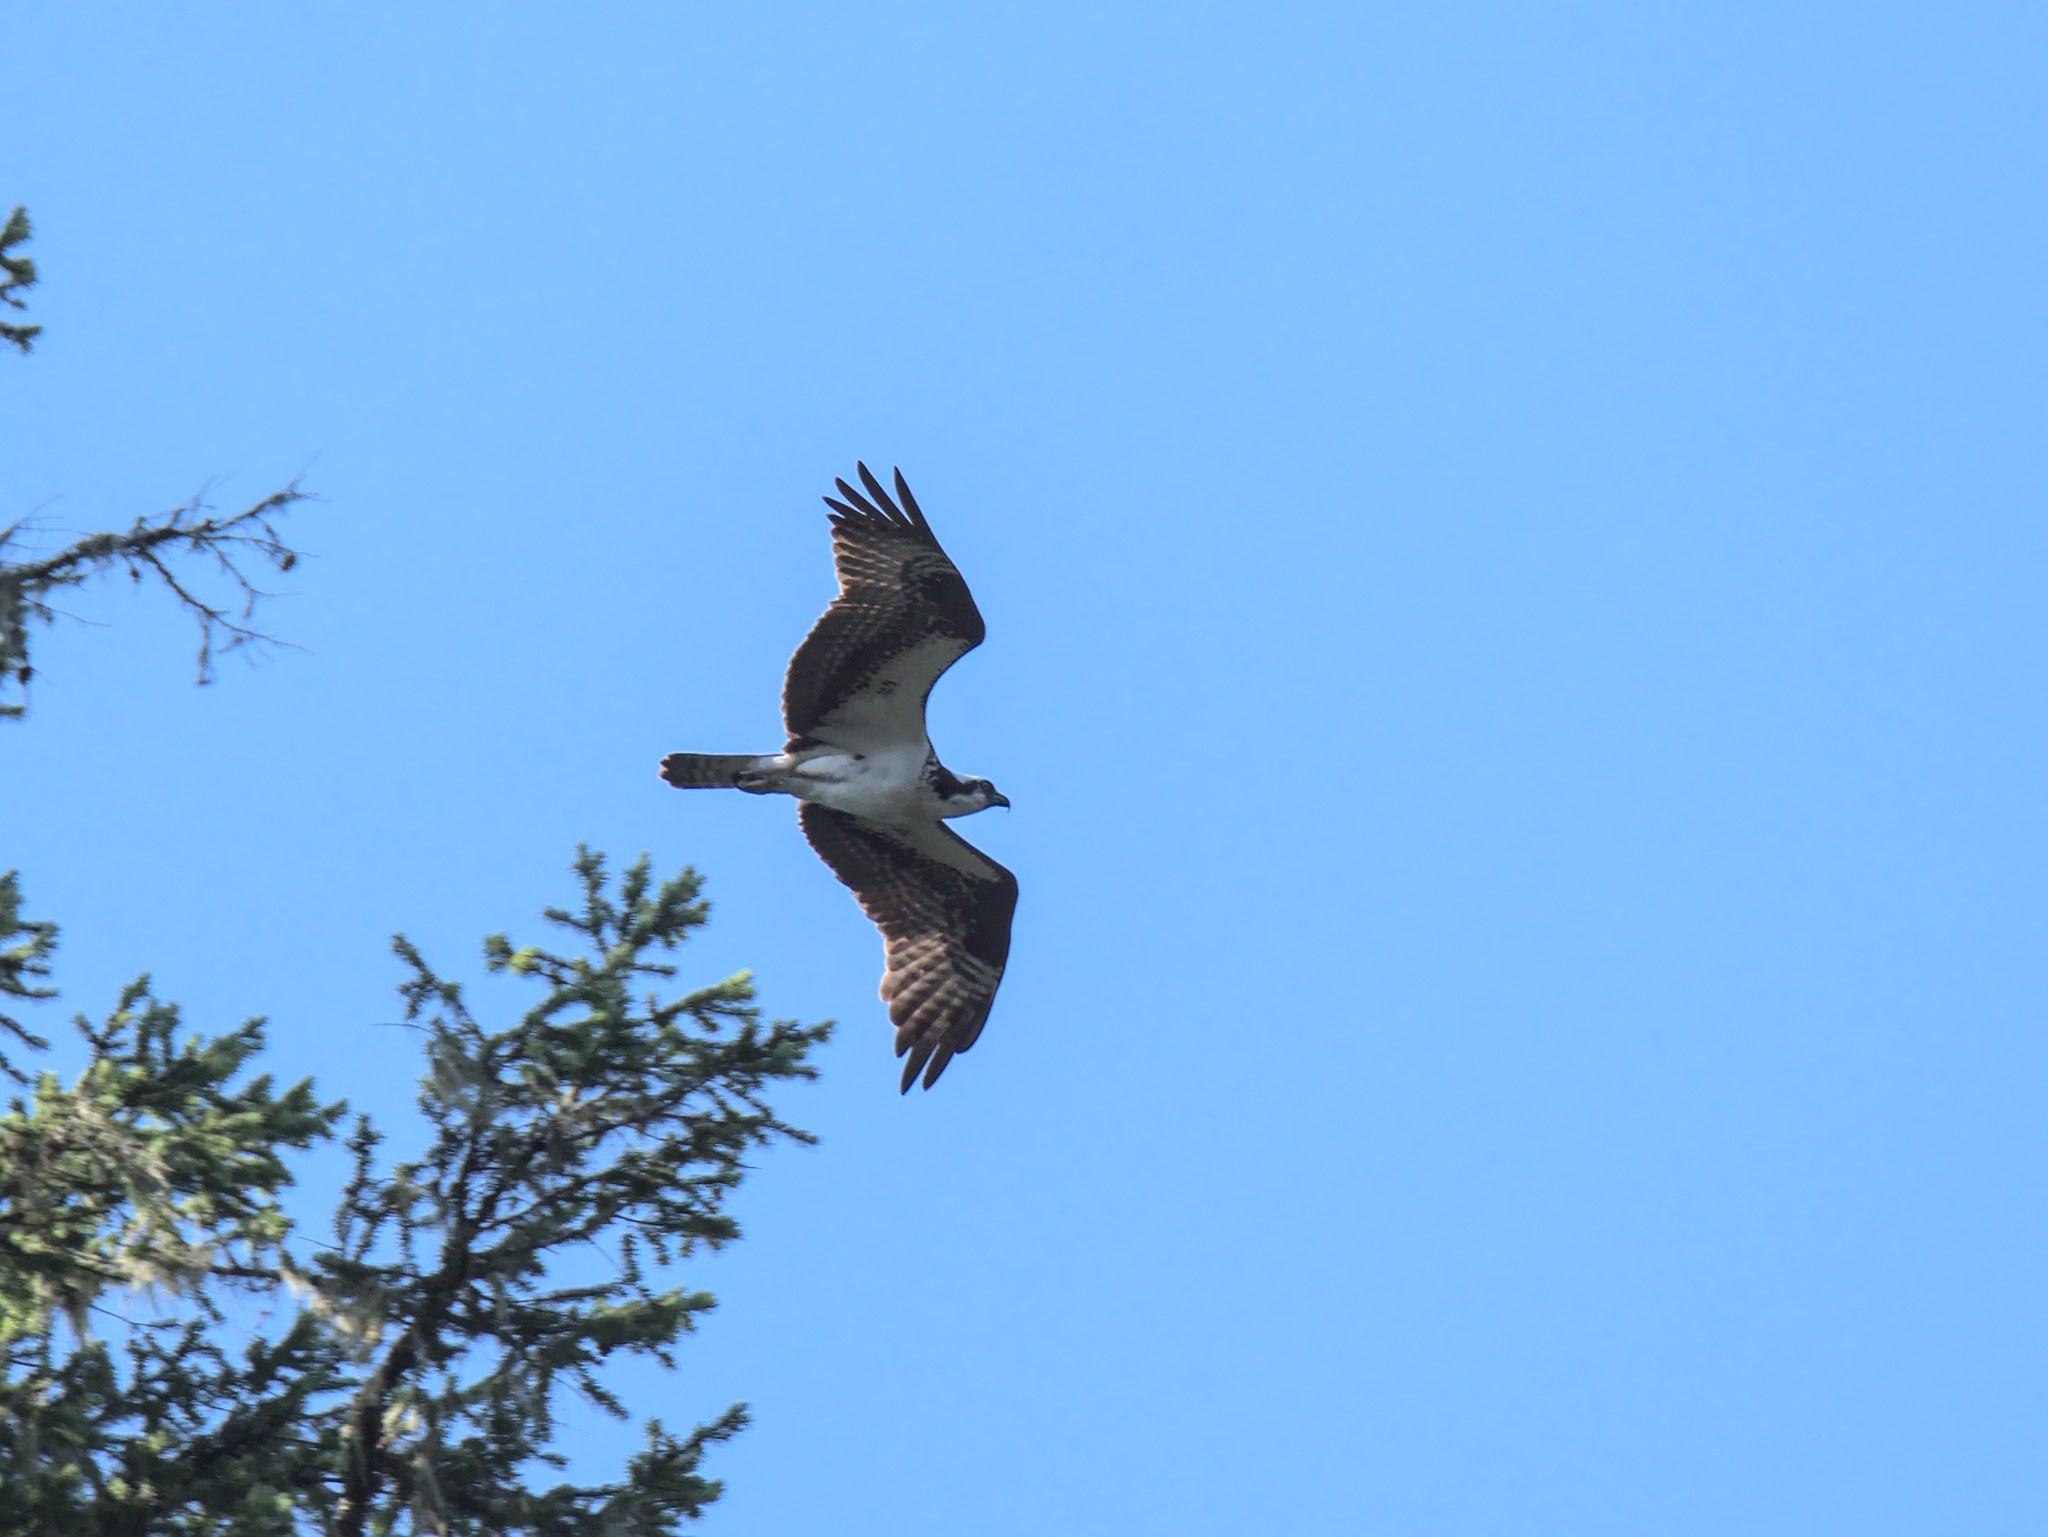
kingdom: Animalia
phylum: Chordata
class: Aves
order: Accipitriformes
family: Pandionidae
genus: Pandion
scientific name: Pandion haliaetus
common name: Osprey
